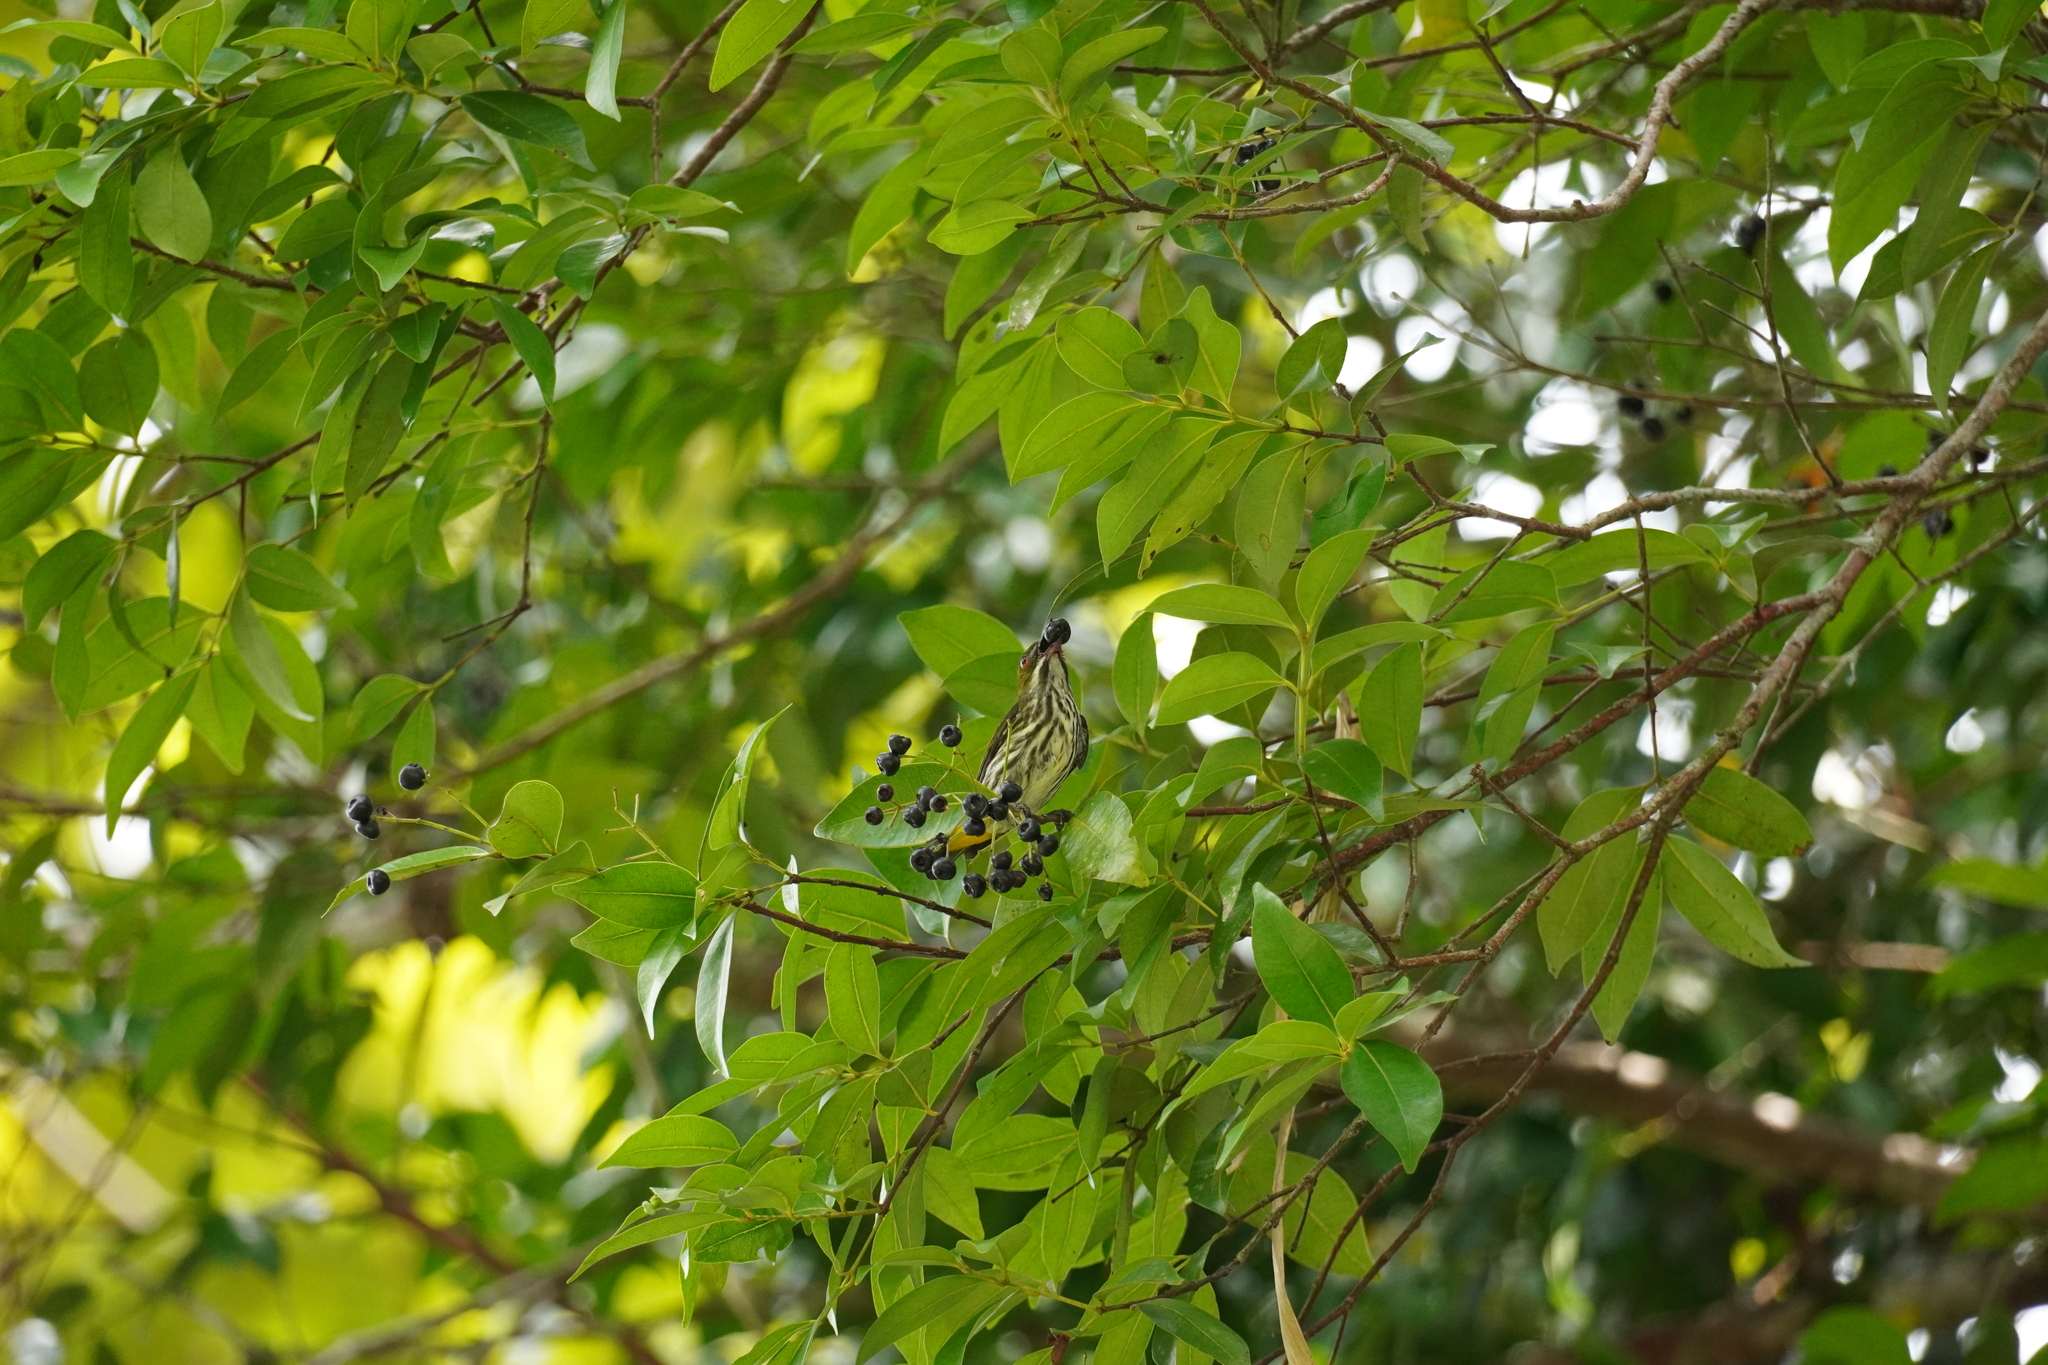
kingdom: Animalia
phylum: Chordata
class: Aves
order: Passeriformes
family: Dicaeidae
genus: Dicaeum
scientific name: Dicaeum chrysorrheum
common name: Yellow-vented flowerpecker
